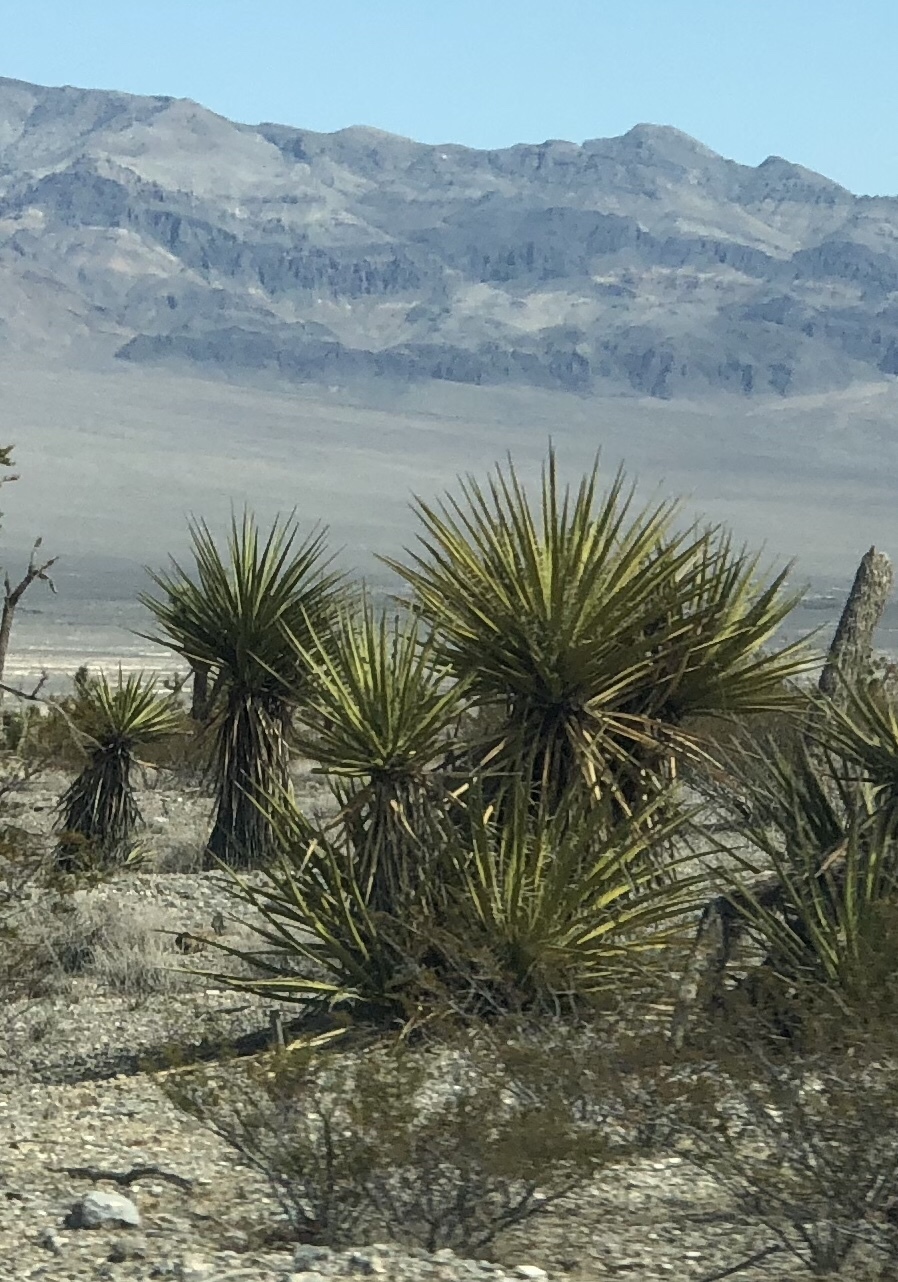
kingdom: Plantae
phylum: Tracheophyta
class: Liliopsida
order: Asparagales
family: Asparagaceae
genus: Yucca
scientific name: Yucca schidigera
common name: Mojave yucca
